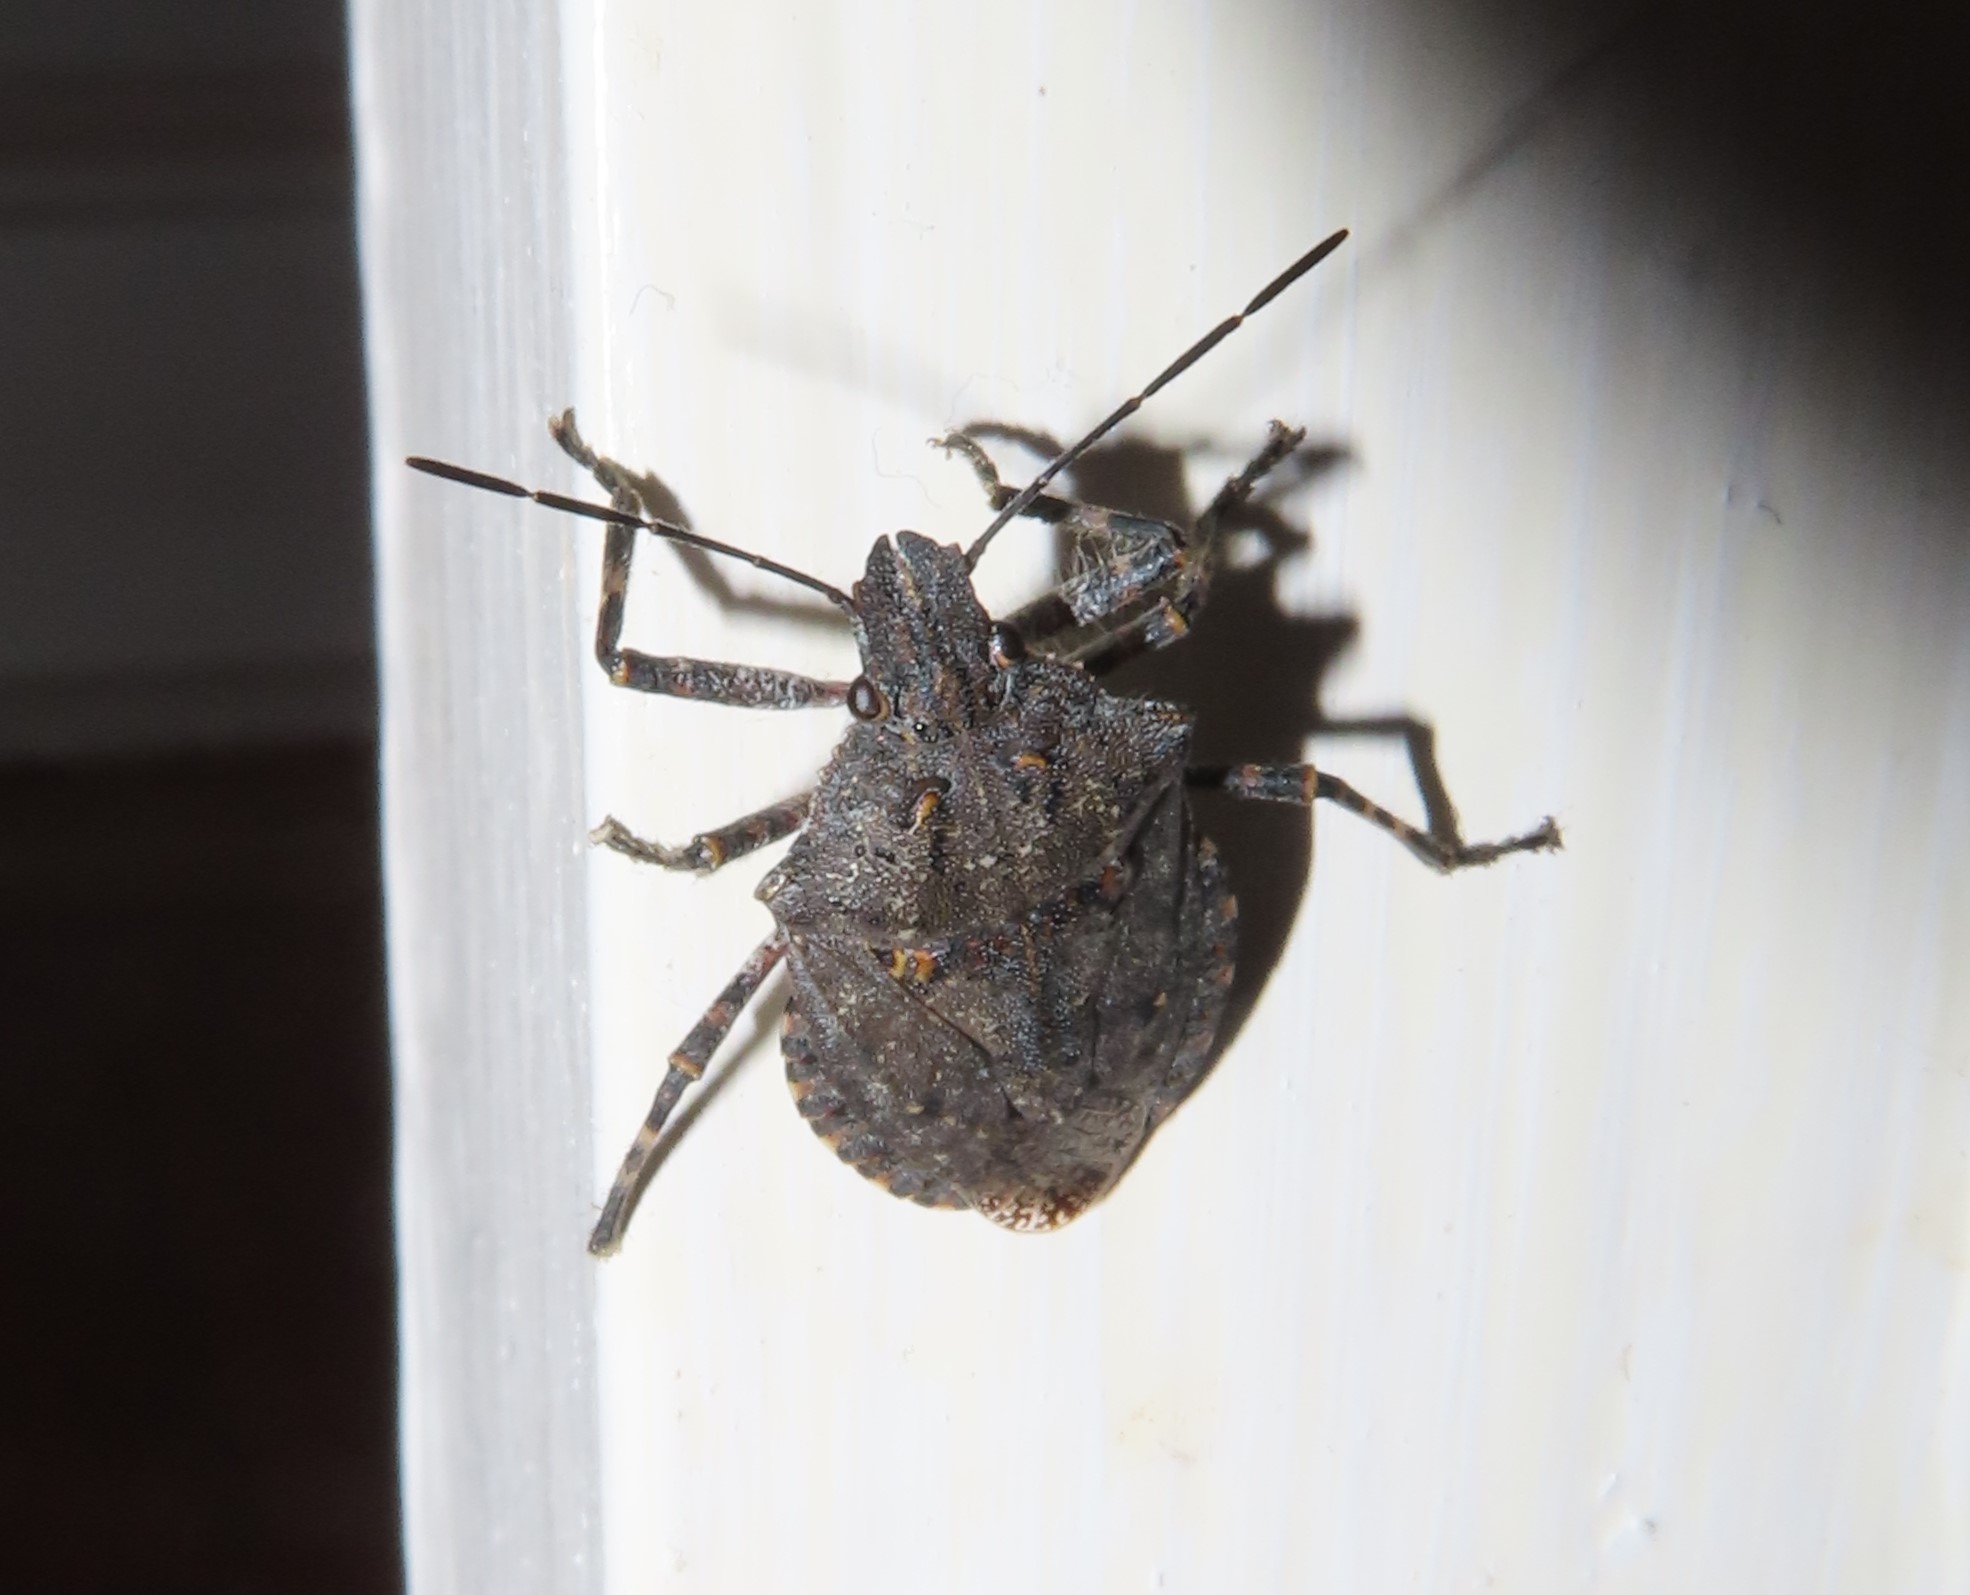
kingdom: Animalia
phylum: Arthropoda
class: Insecta
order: Hemiptera
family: Pentatomidae
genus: Brochymena
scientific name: Brochymena quadripustulata
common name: Four-humped stink bug
